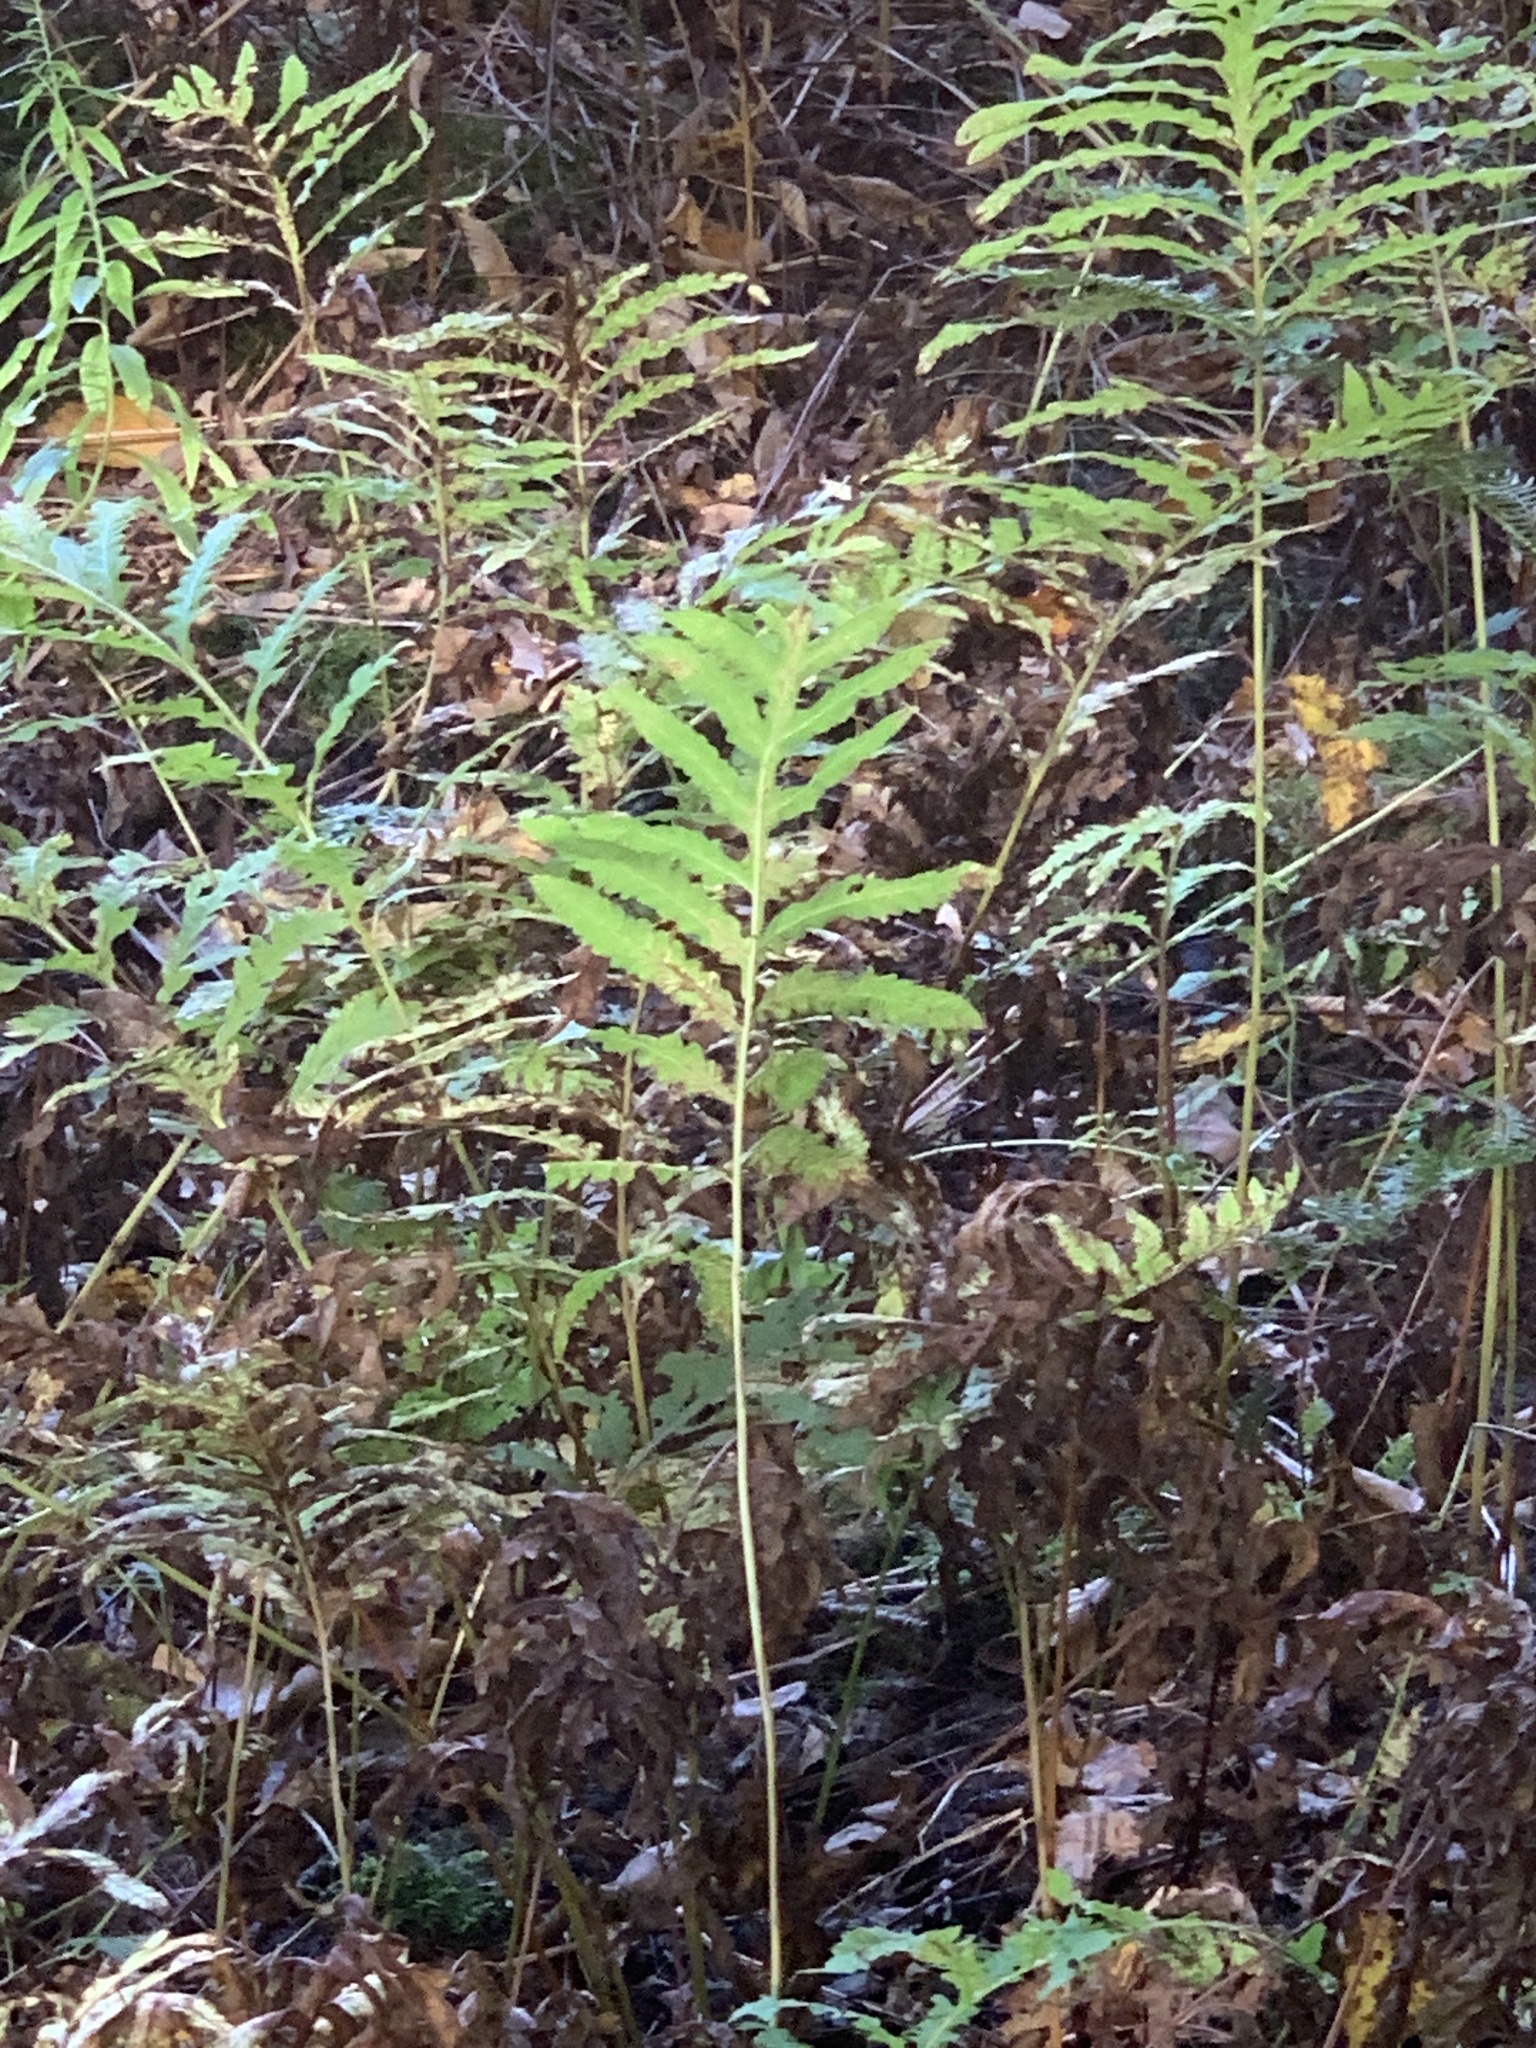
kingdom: Plantae
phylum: Tracheophyta
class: Polypodiopsida
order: Polypodiales
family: Onocleaceae
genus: Onoclea
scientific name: Onoclea sensibilis
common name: Sensitive fern
